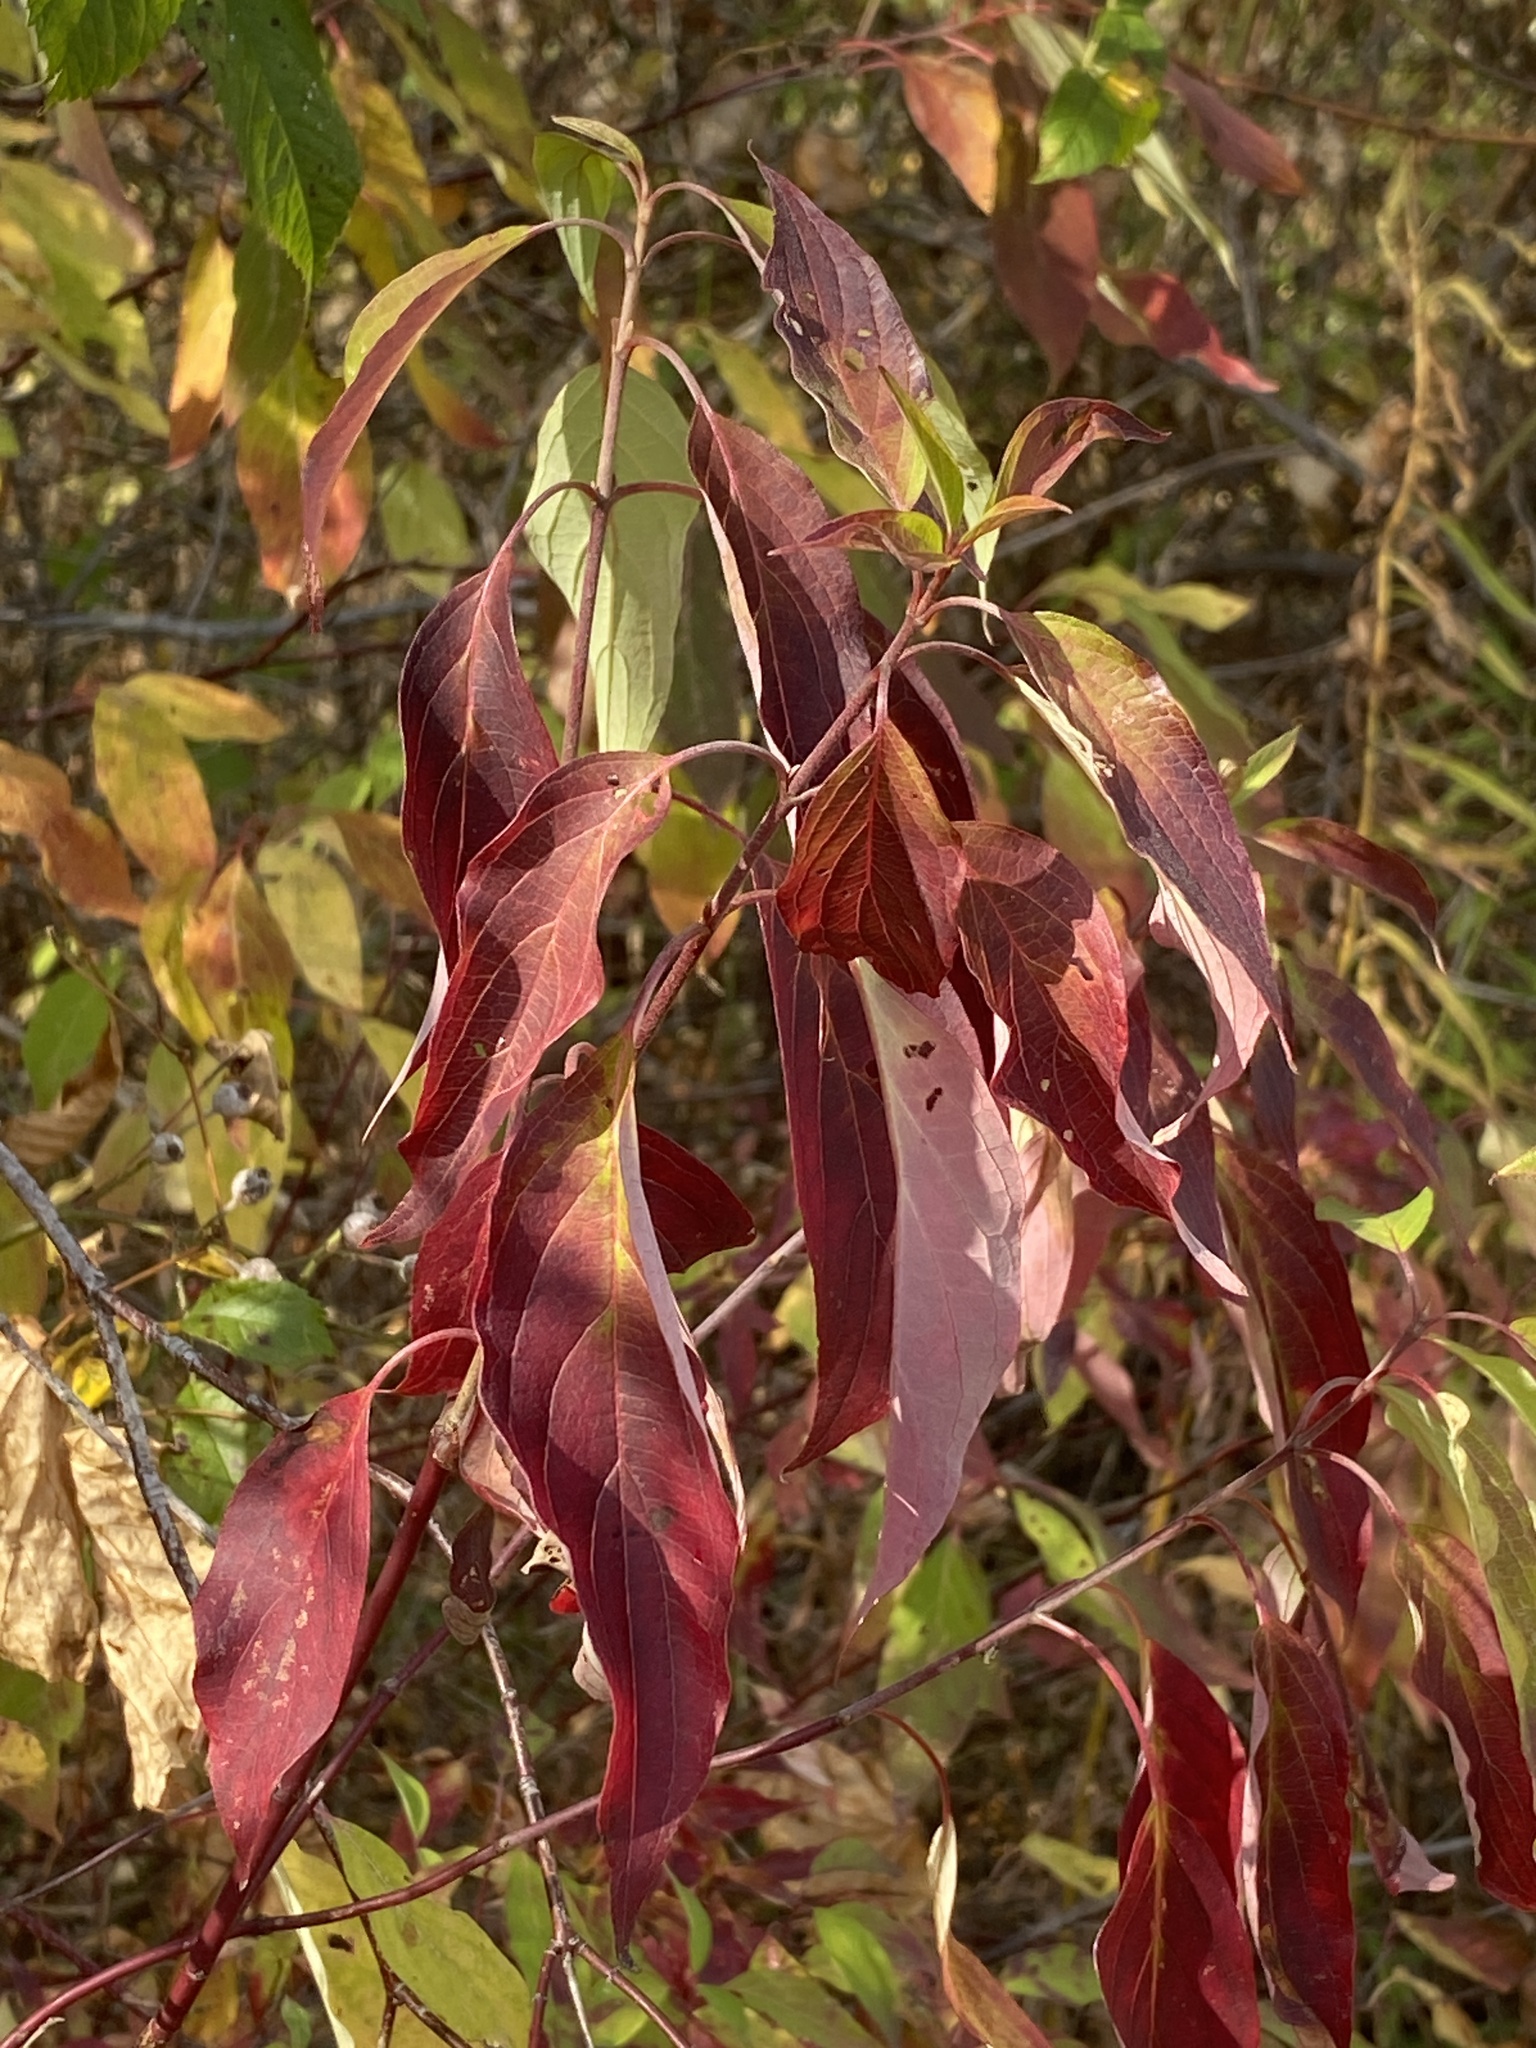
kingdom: Plantae
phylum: Tracheophyta
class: Magnoliopsida
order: Cornales
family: Cornaceae
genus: Cornus
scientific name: Cornus amomum
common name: Silky dogwood
